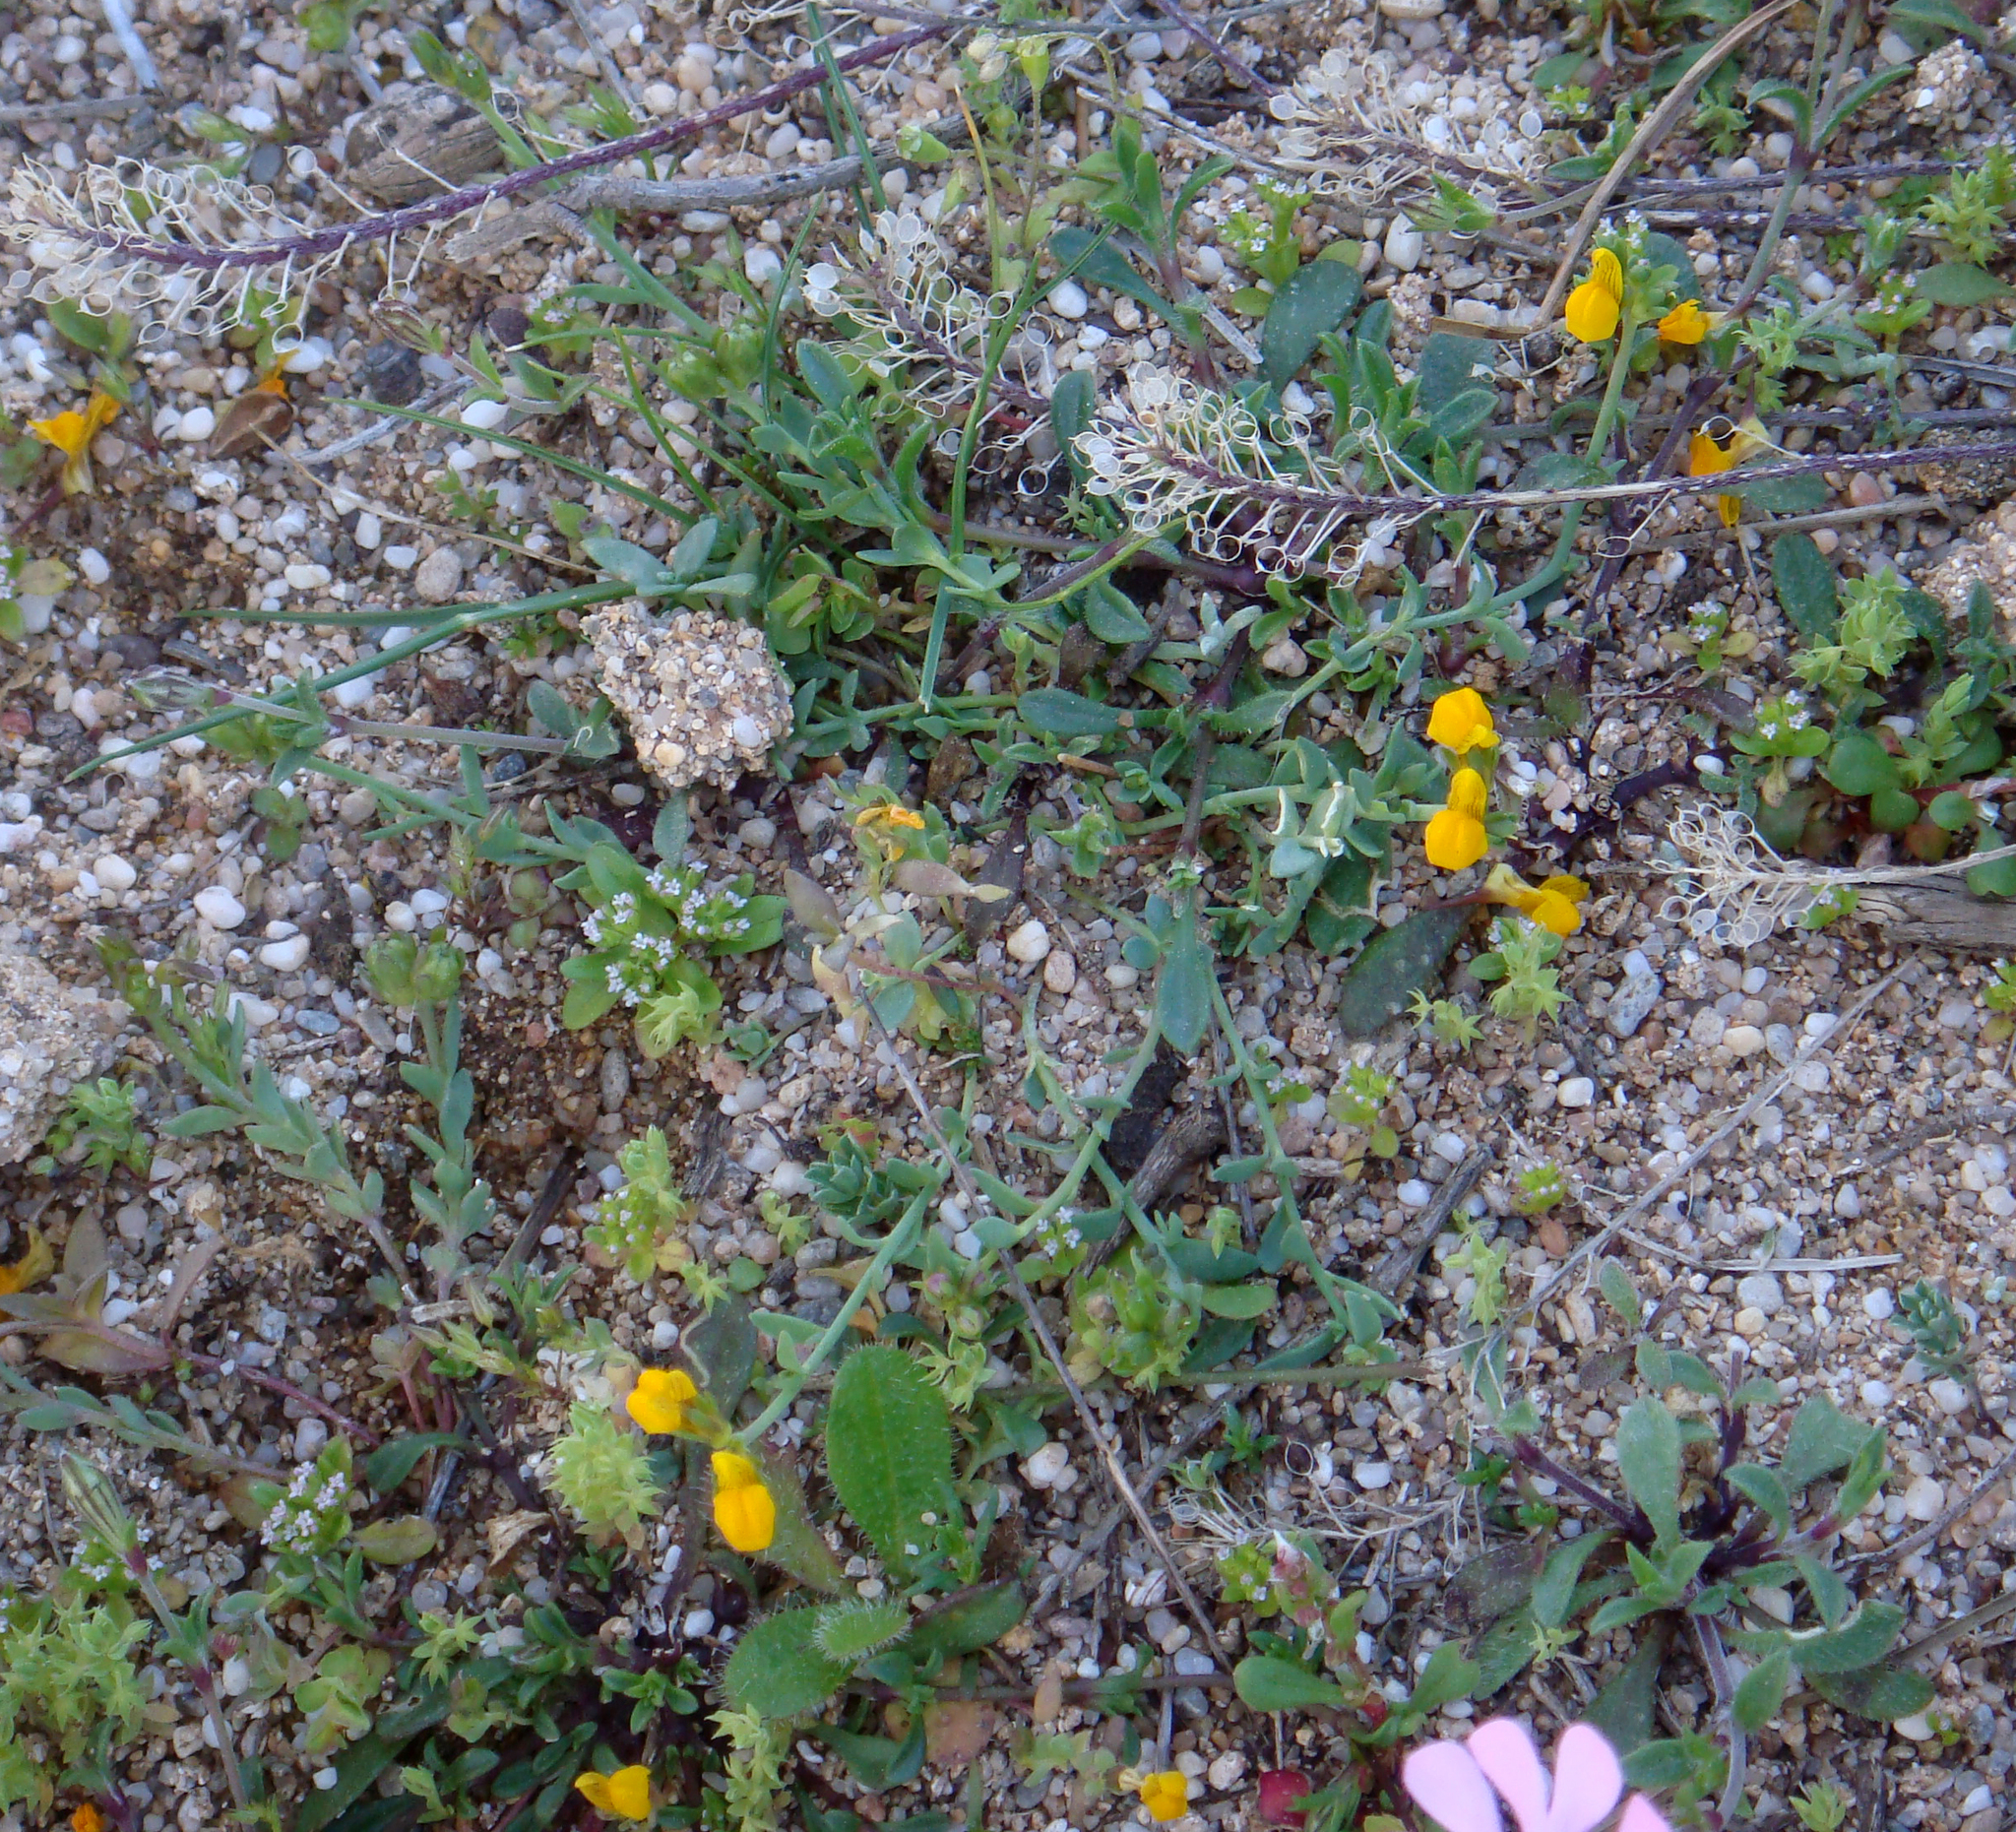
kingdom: Plantae
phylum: Tracheophyta
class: Magnoliopsida
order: Lamiales
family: Plantaginaceae
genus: Linaria
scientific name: Linaria flava
